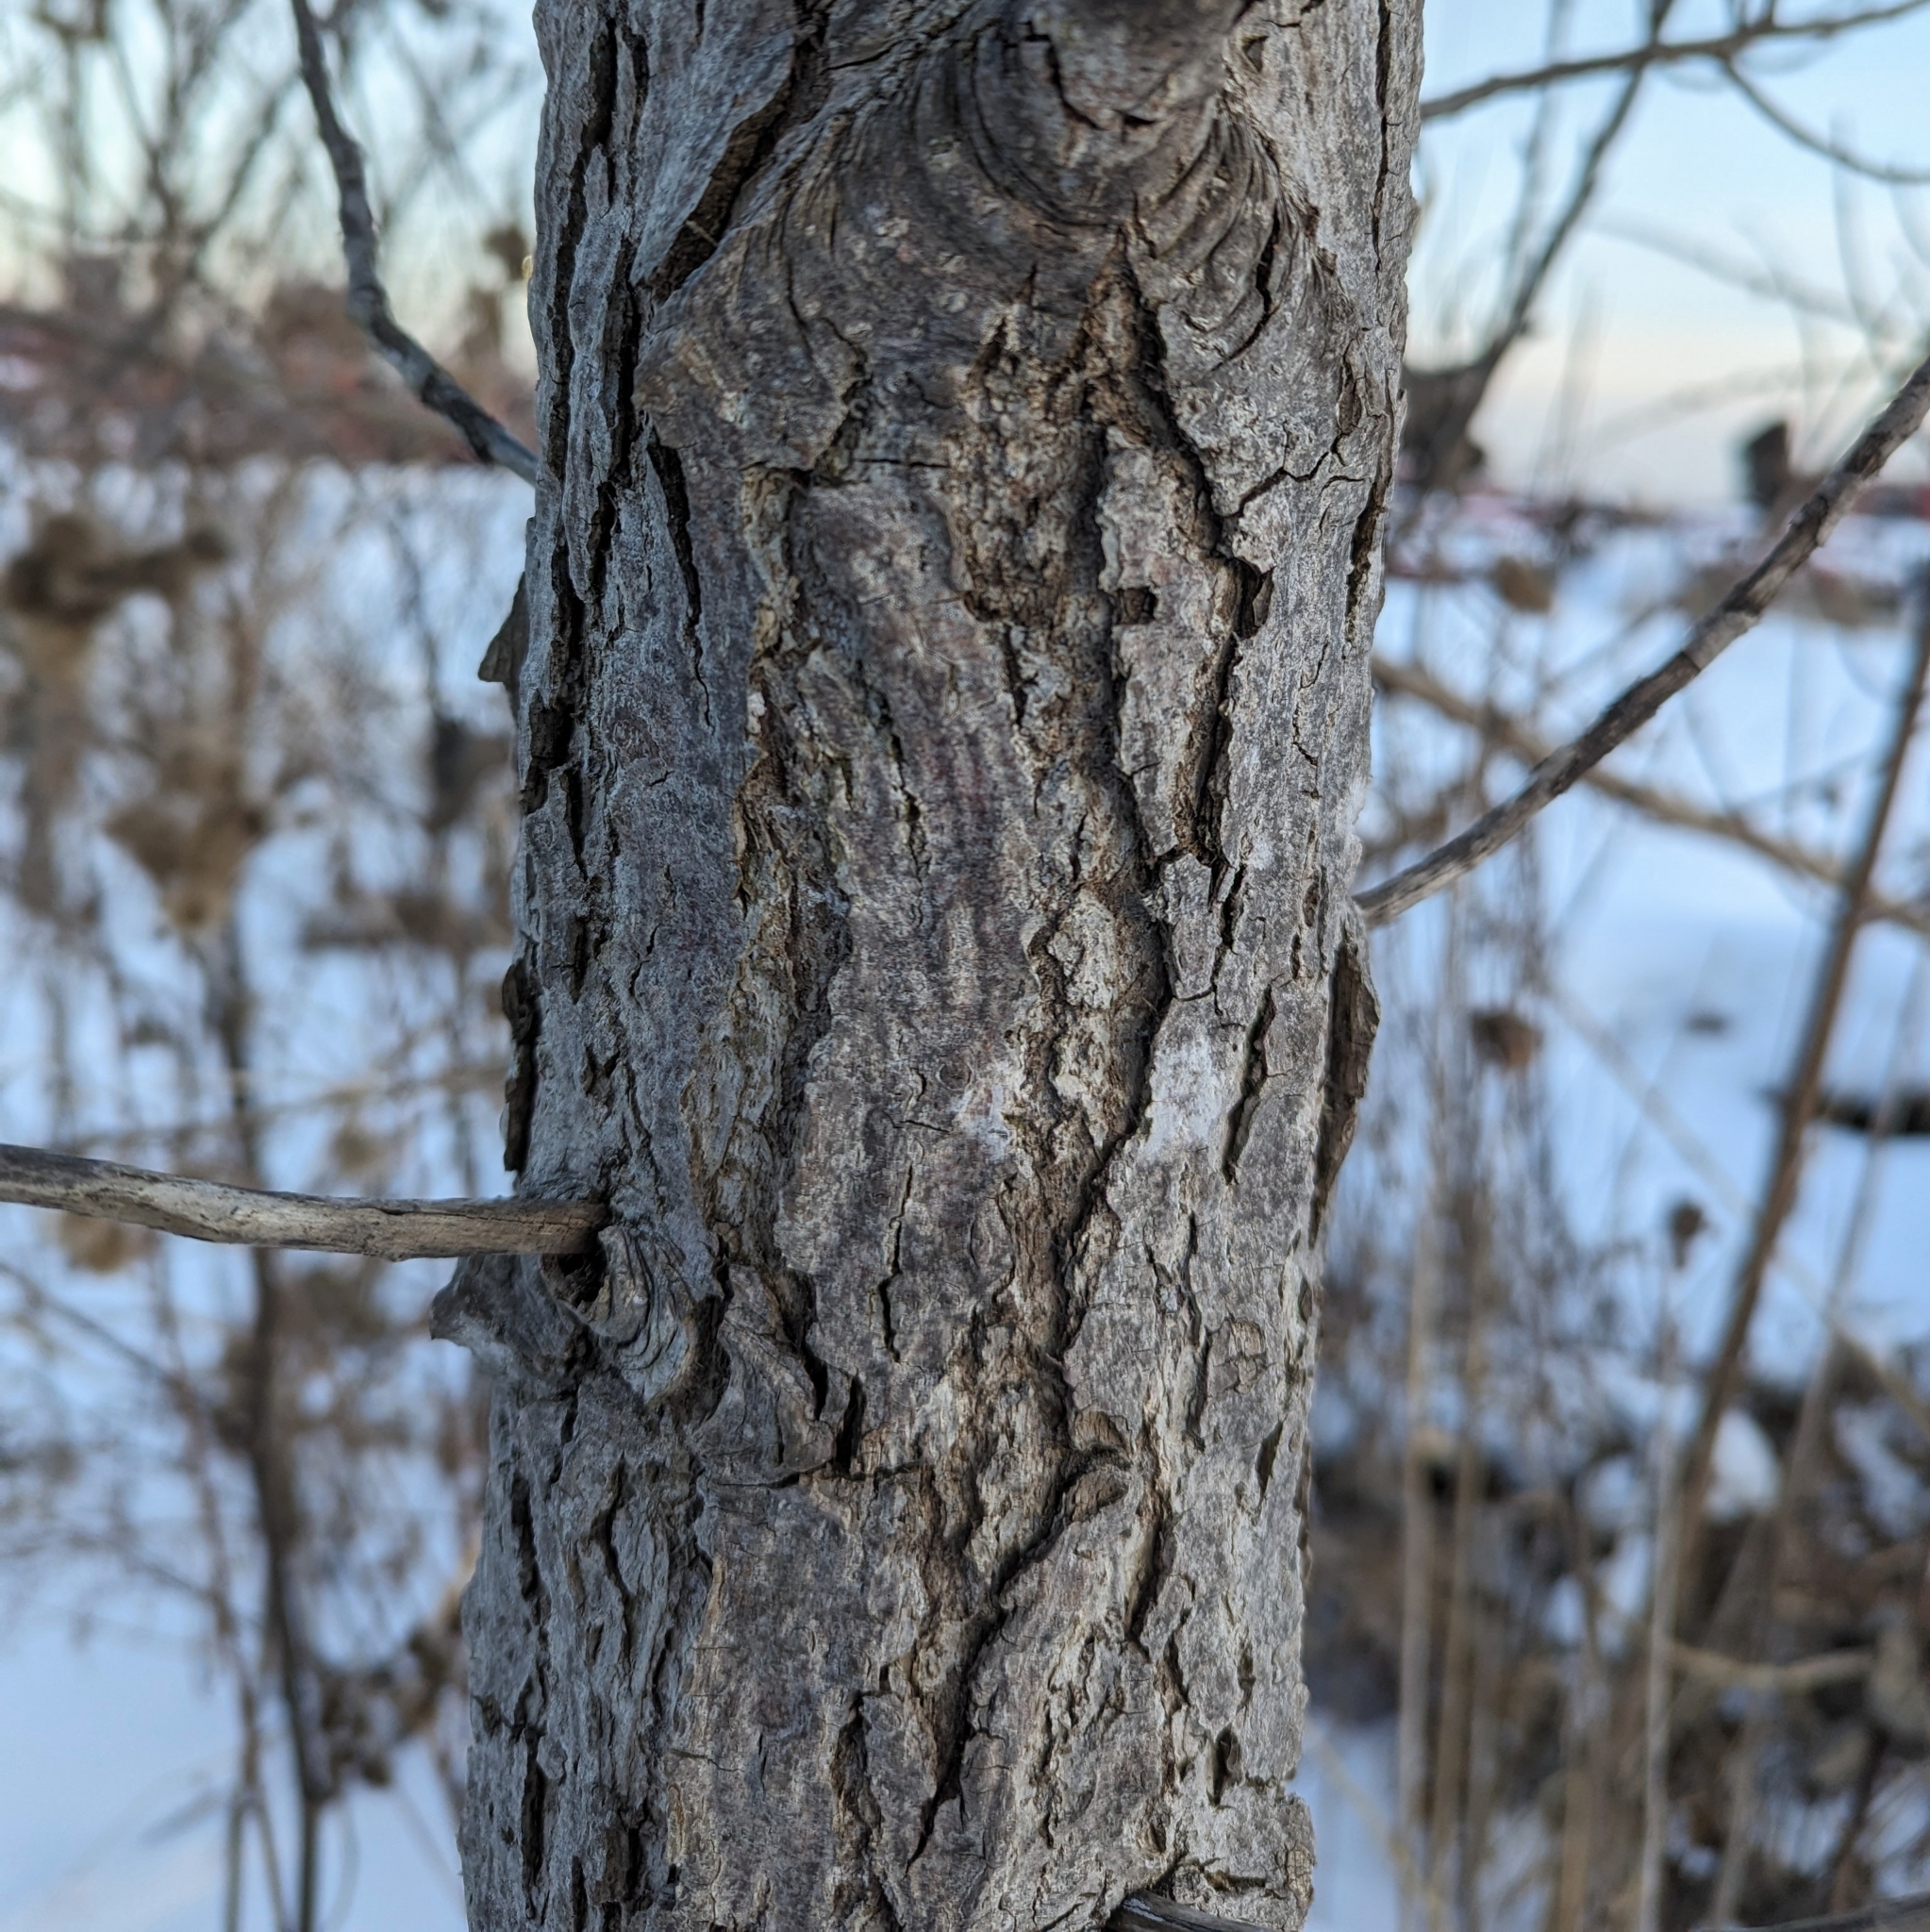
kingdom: Plantae
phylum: Tracheophyta
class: Magnoliopsida
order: Malpighiales
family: Salicaceae
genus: Populus
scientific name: Populus deltoides
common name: Eastern cottonwood
